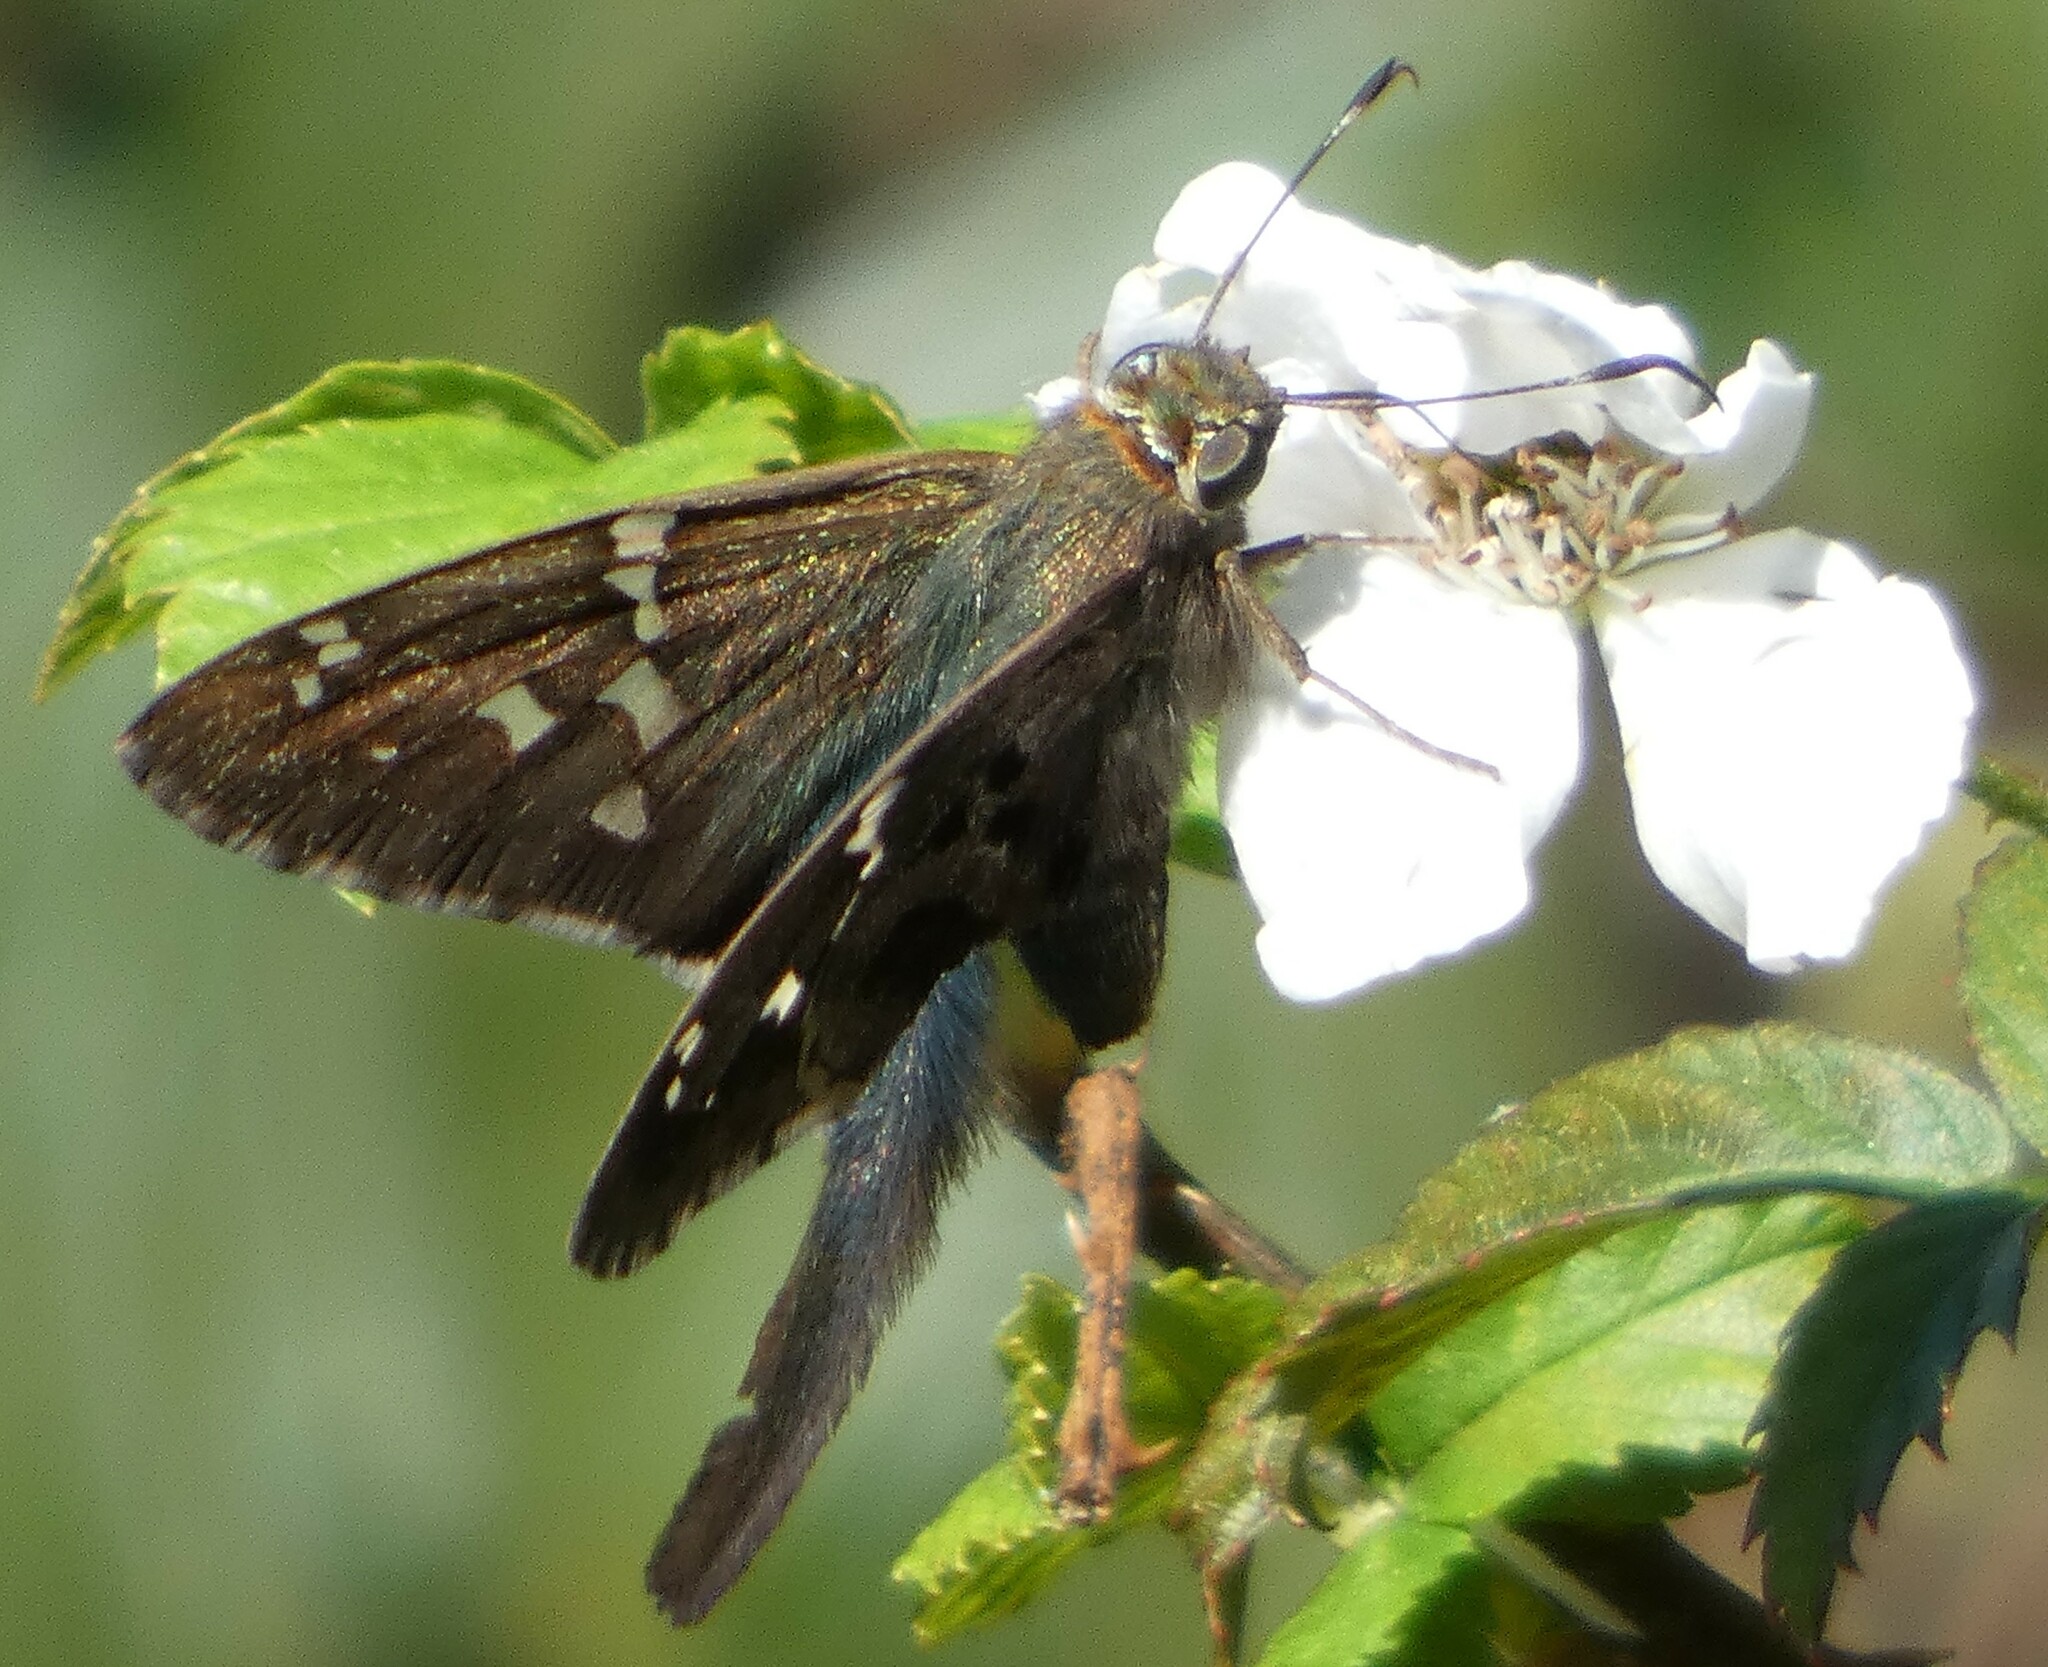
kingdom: Animalia
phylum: Arthropoda
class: Insecta
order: Lepidoptera
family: Hesperiidae
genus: Urbanus
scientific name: Urbanus proteus
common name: Long-tailed skipper
